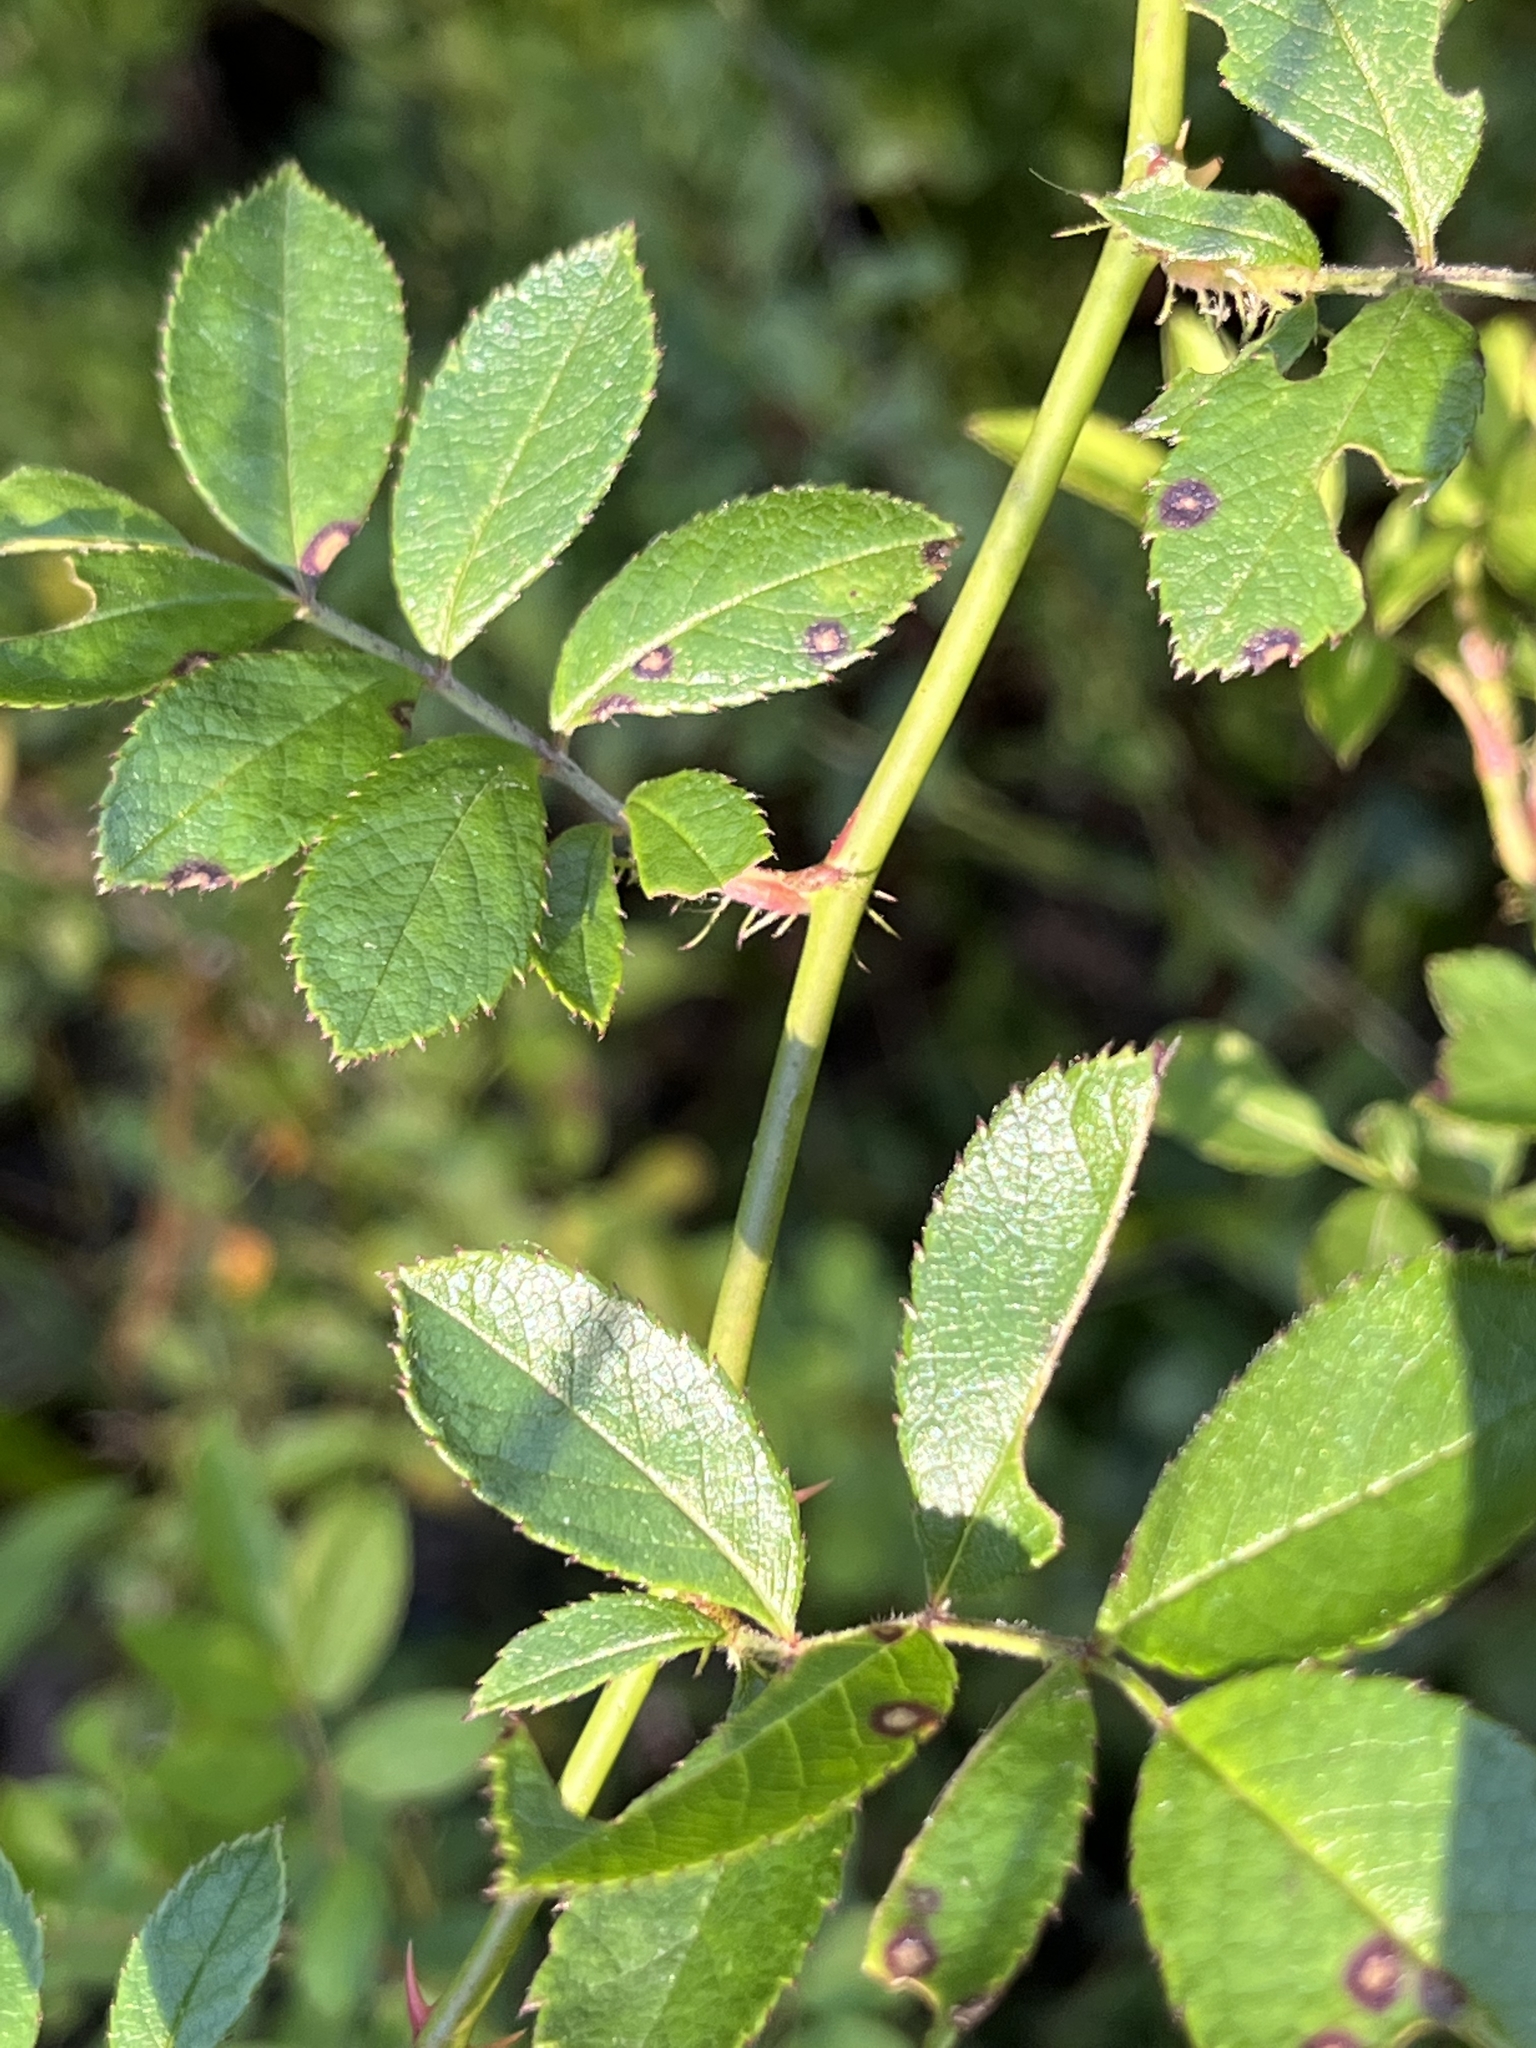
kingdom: Plantae
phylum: Tracheophyta
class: Magnoliopsida
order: Rosales
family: Rosaceae
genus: Rosa
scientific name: Rosa multiflora
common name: Multiflora rose
